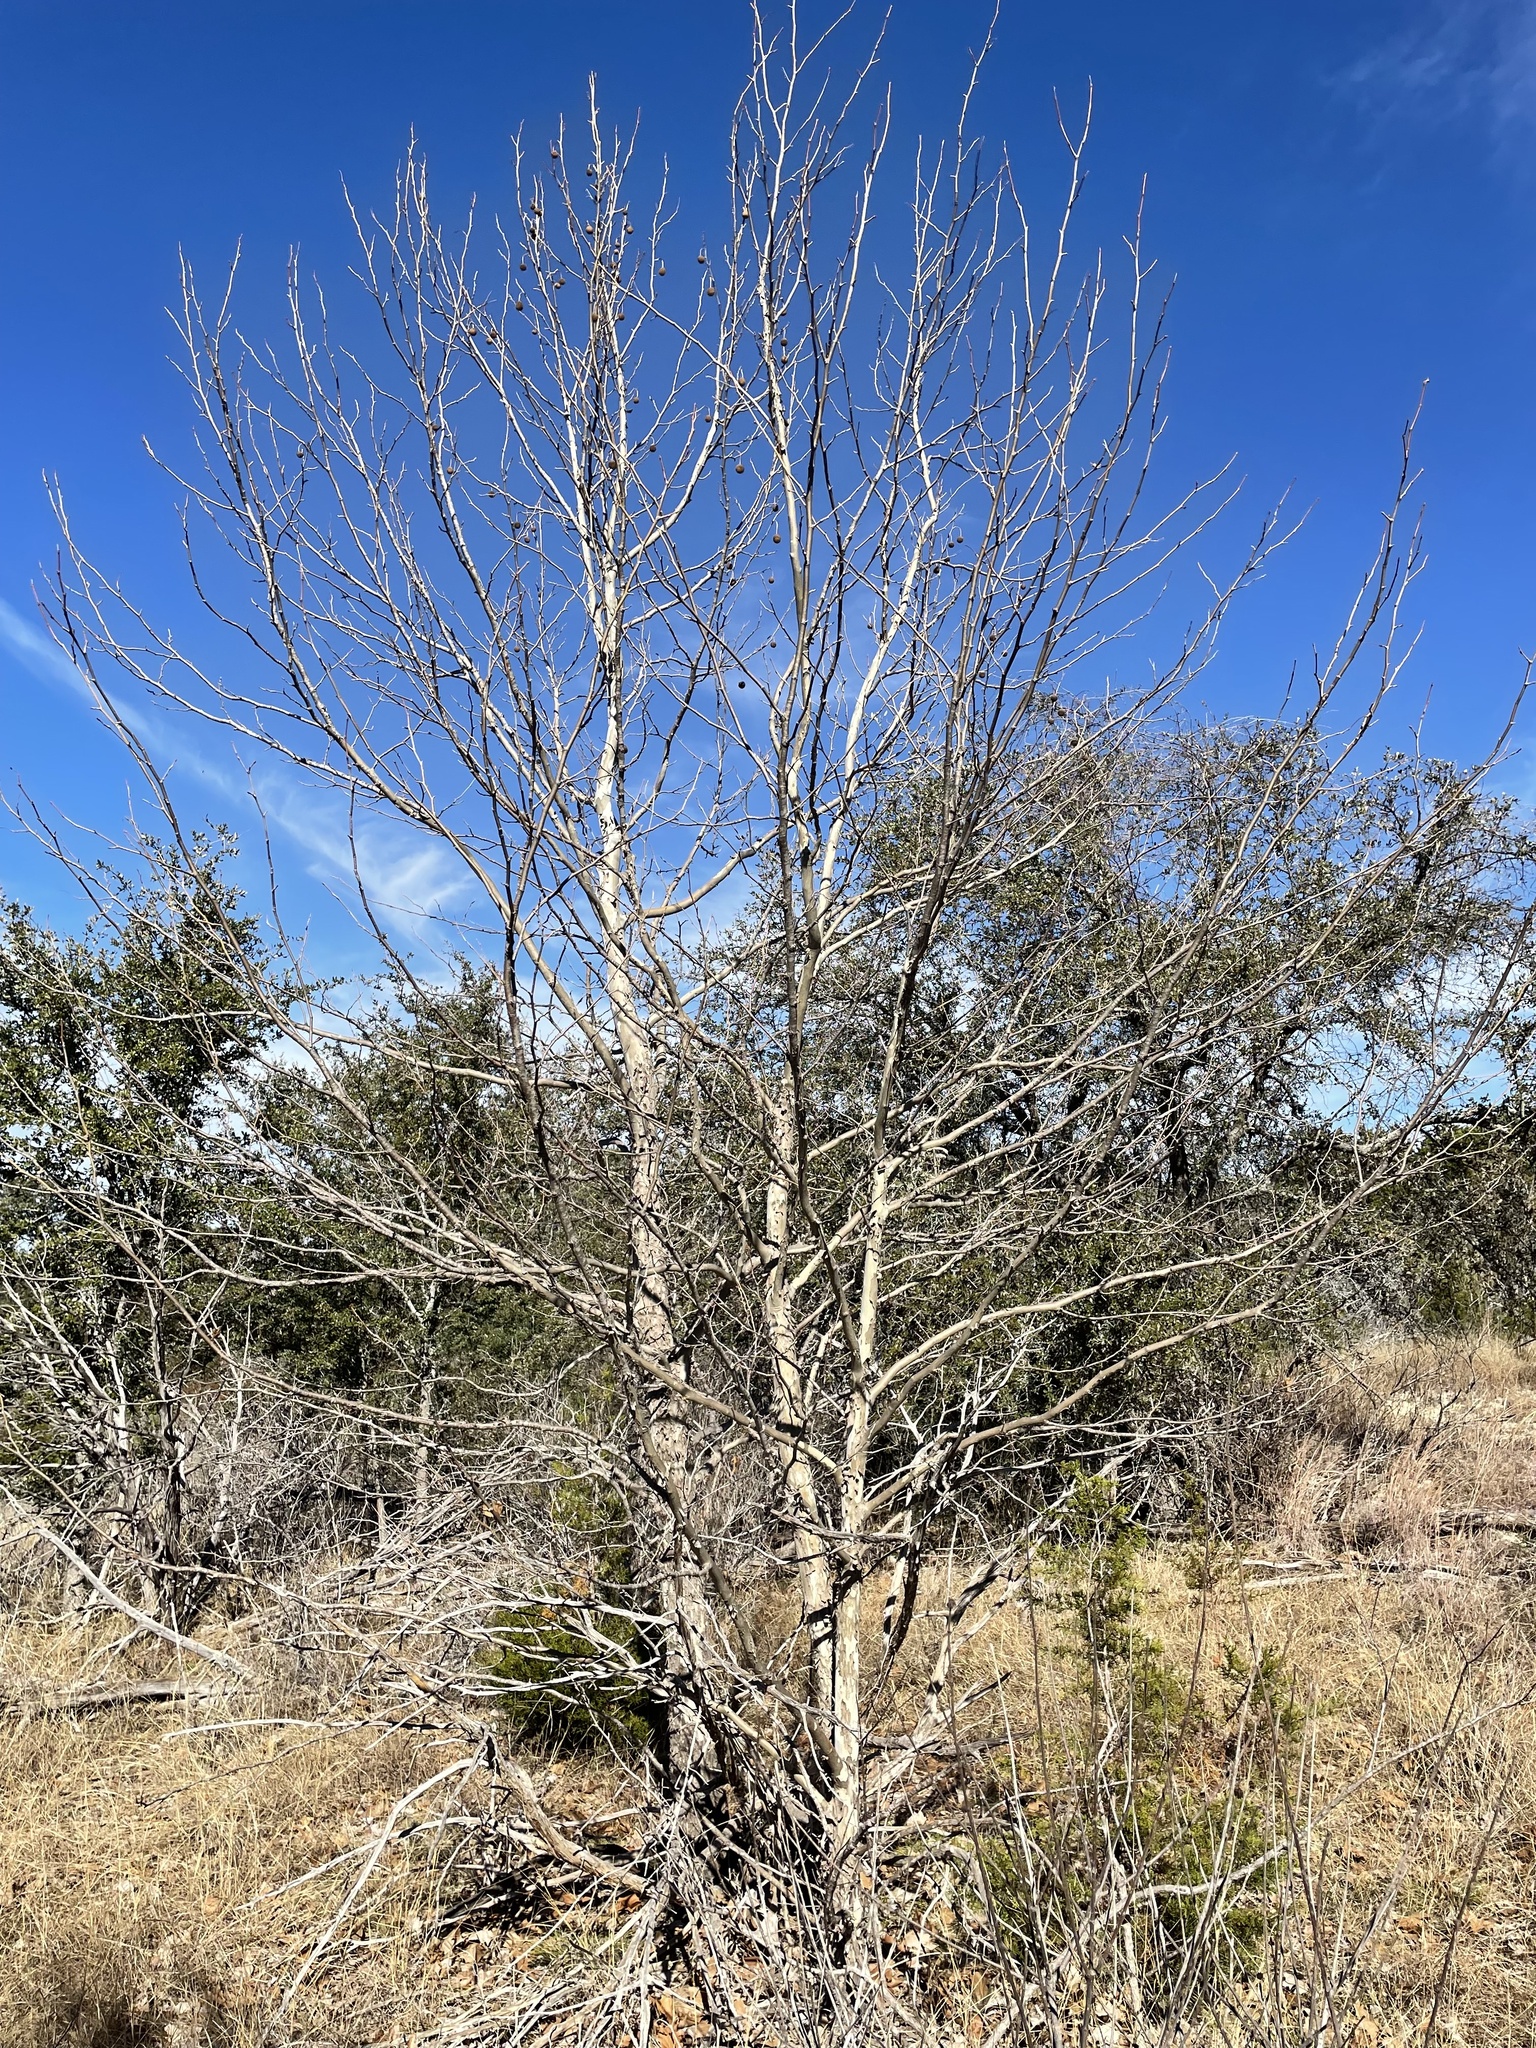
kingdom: Plantae
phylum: Tracheophyta
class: Magnoliopsida
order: Proteales
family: Platanaceae
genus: Platanus
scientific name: Platanus occidentalis
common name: American sycamore
